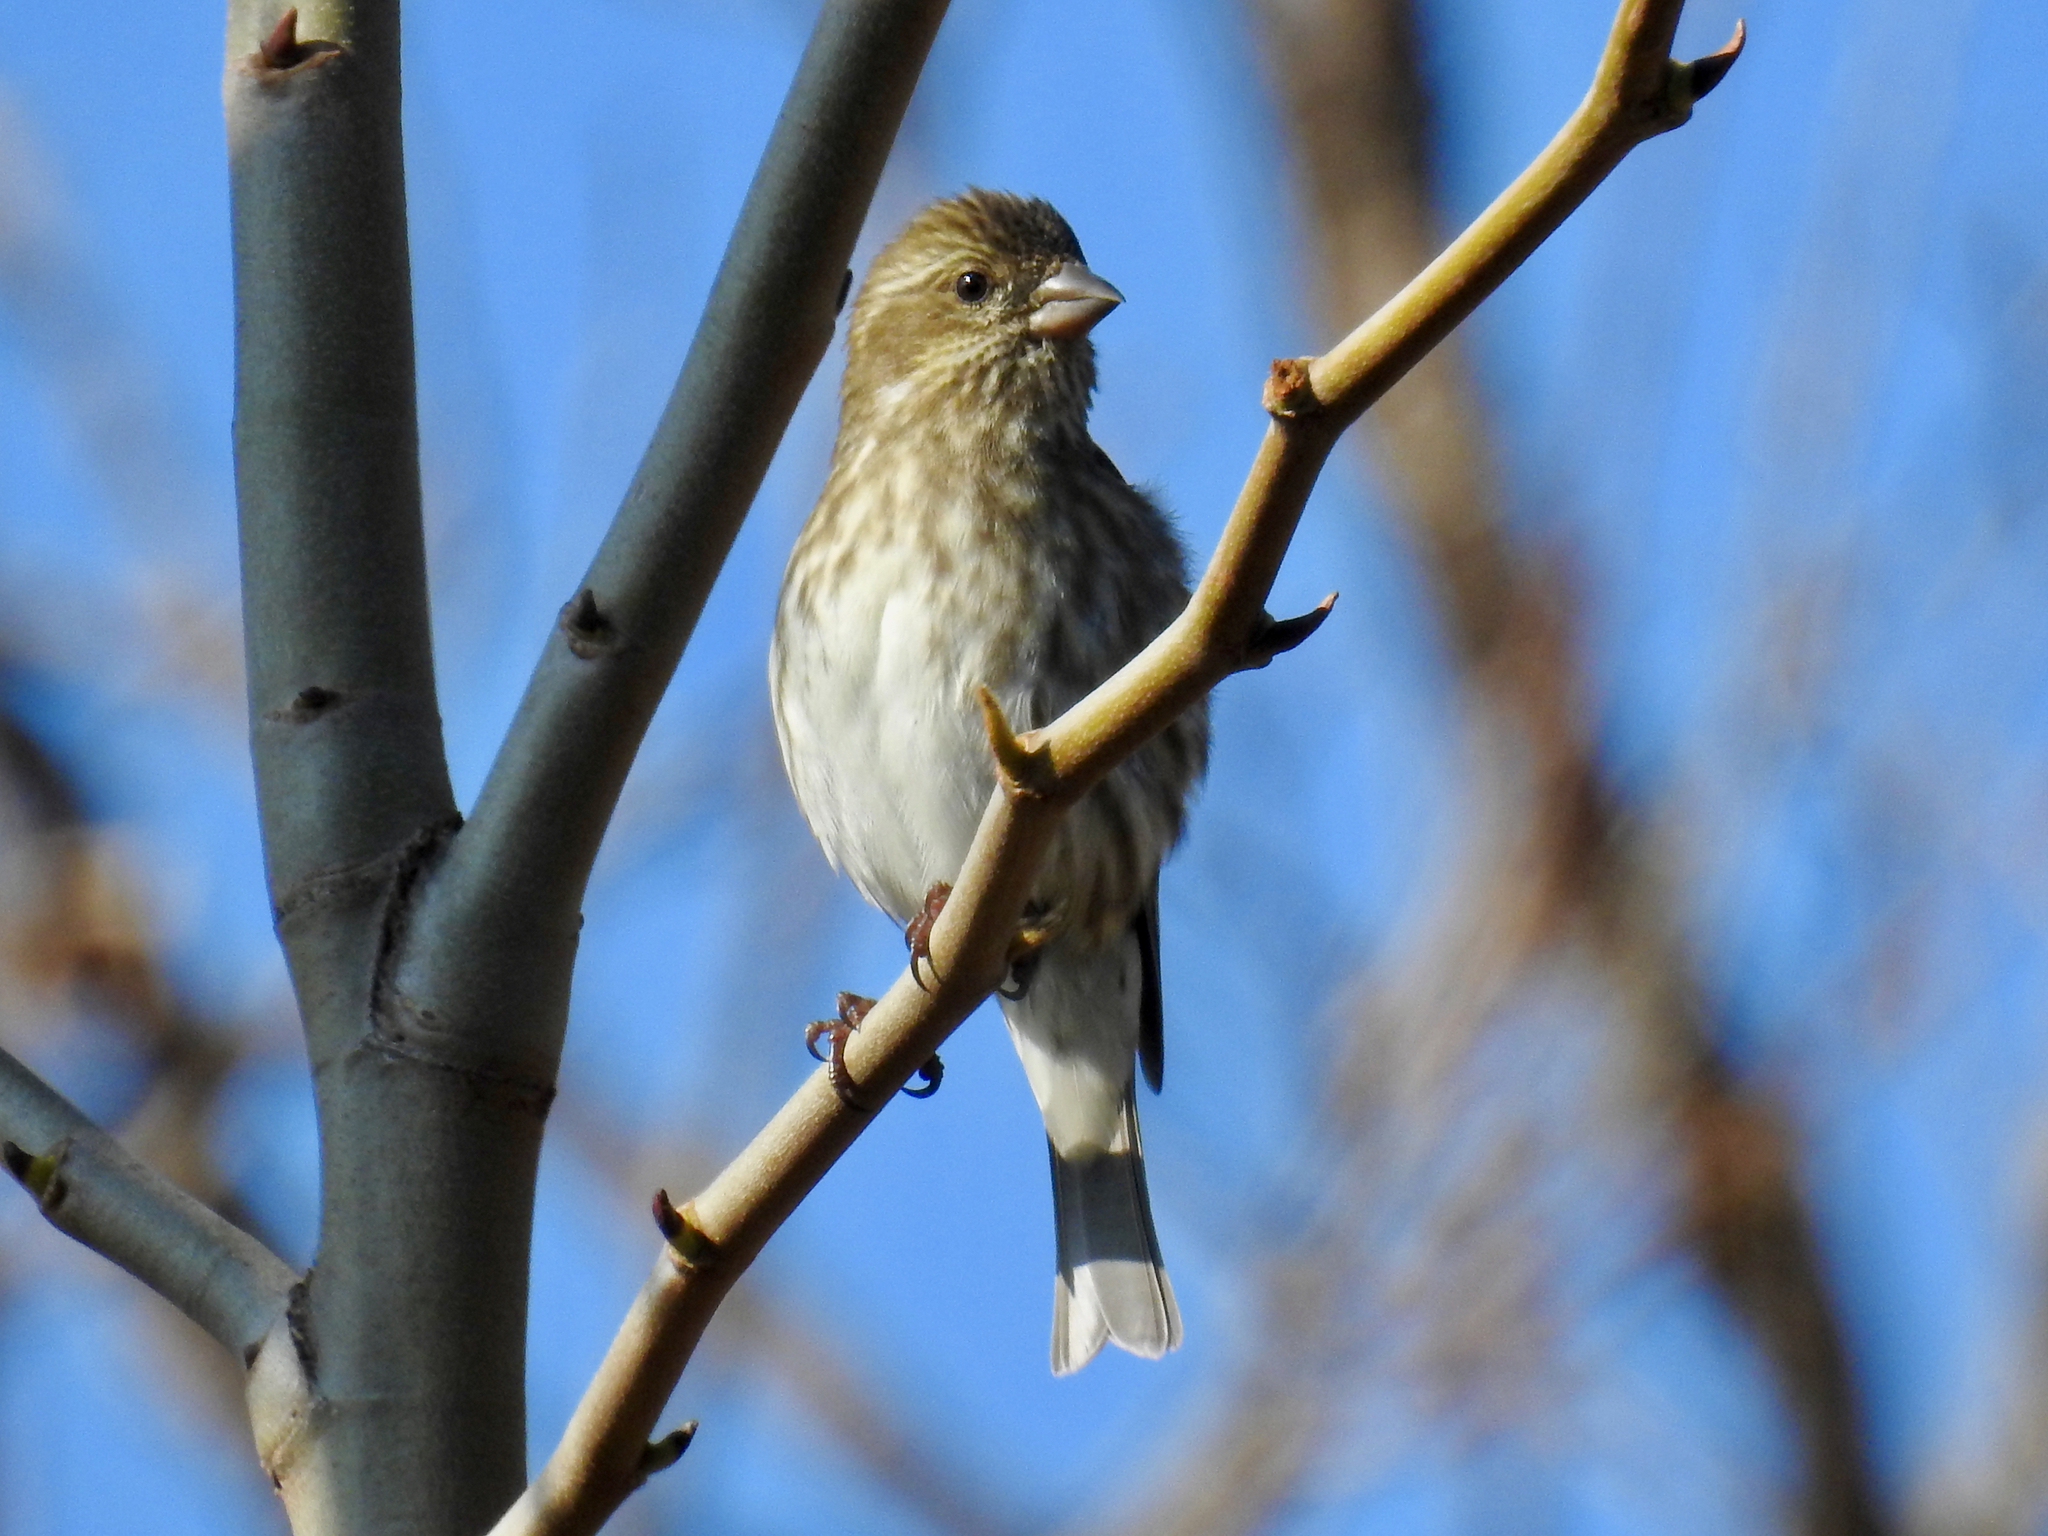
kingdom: Animalia
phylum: Chordata
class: Aves
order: Passeriformes
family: Fringillidae
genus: Haemorhous
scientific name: Haemorhous purpureus
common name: Purple finch
